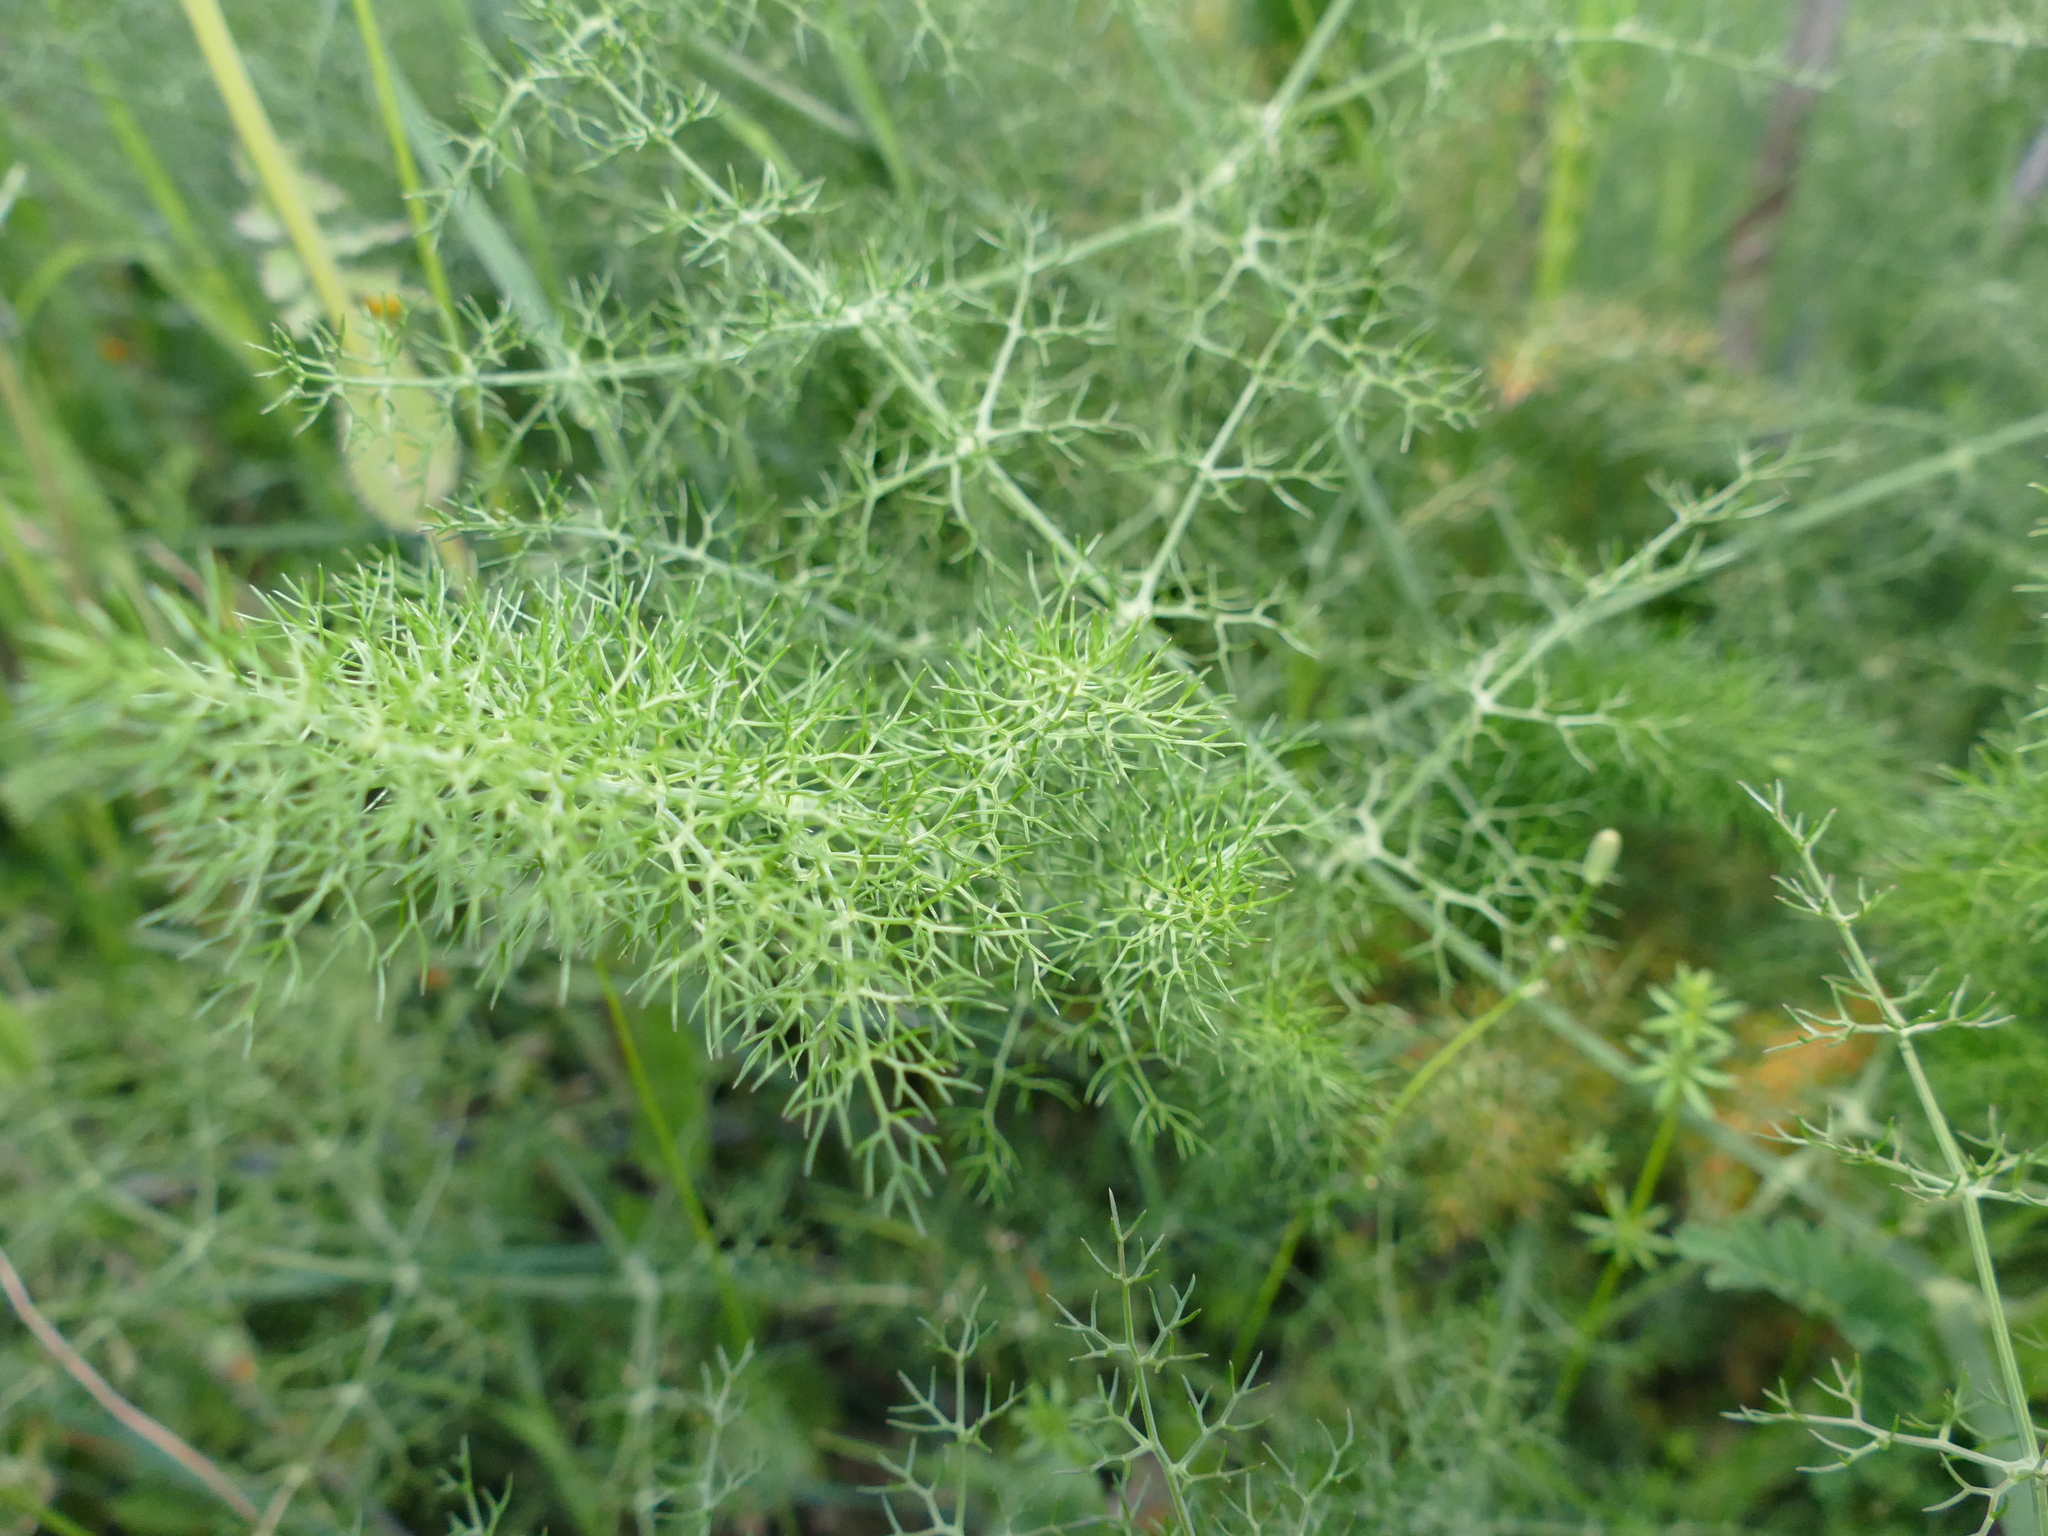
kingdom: Plantae
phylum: Tracheophyta
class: Magnoliopsida
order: Apiales
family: Apiaceae
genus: Foeniculum
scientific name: Foeniculum vulgare
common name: Fennel
